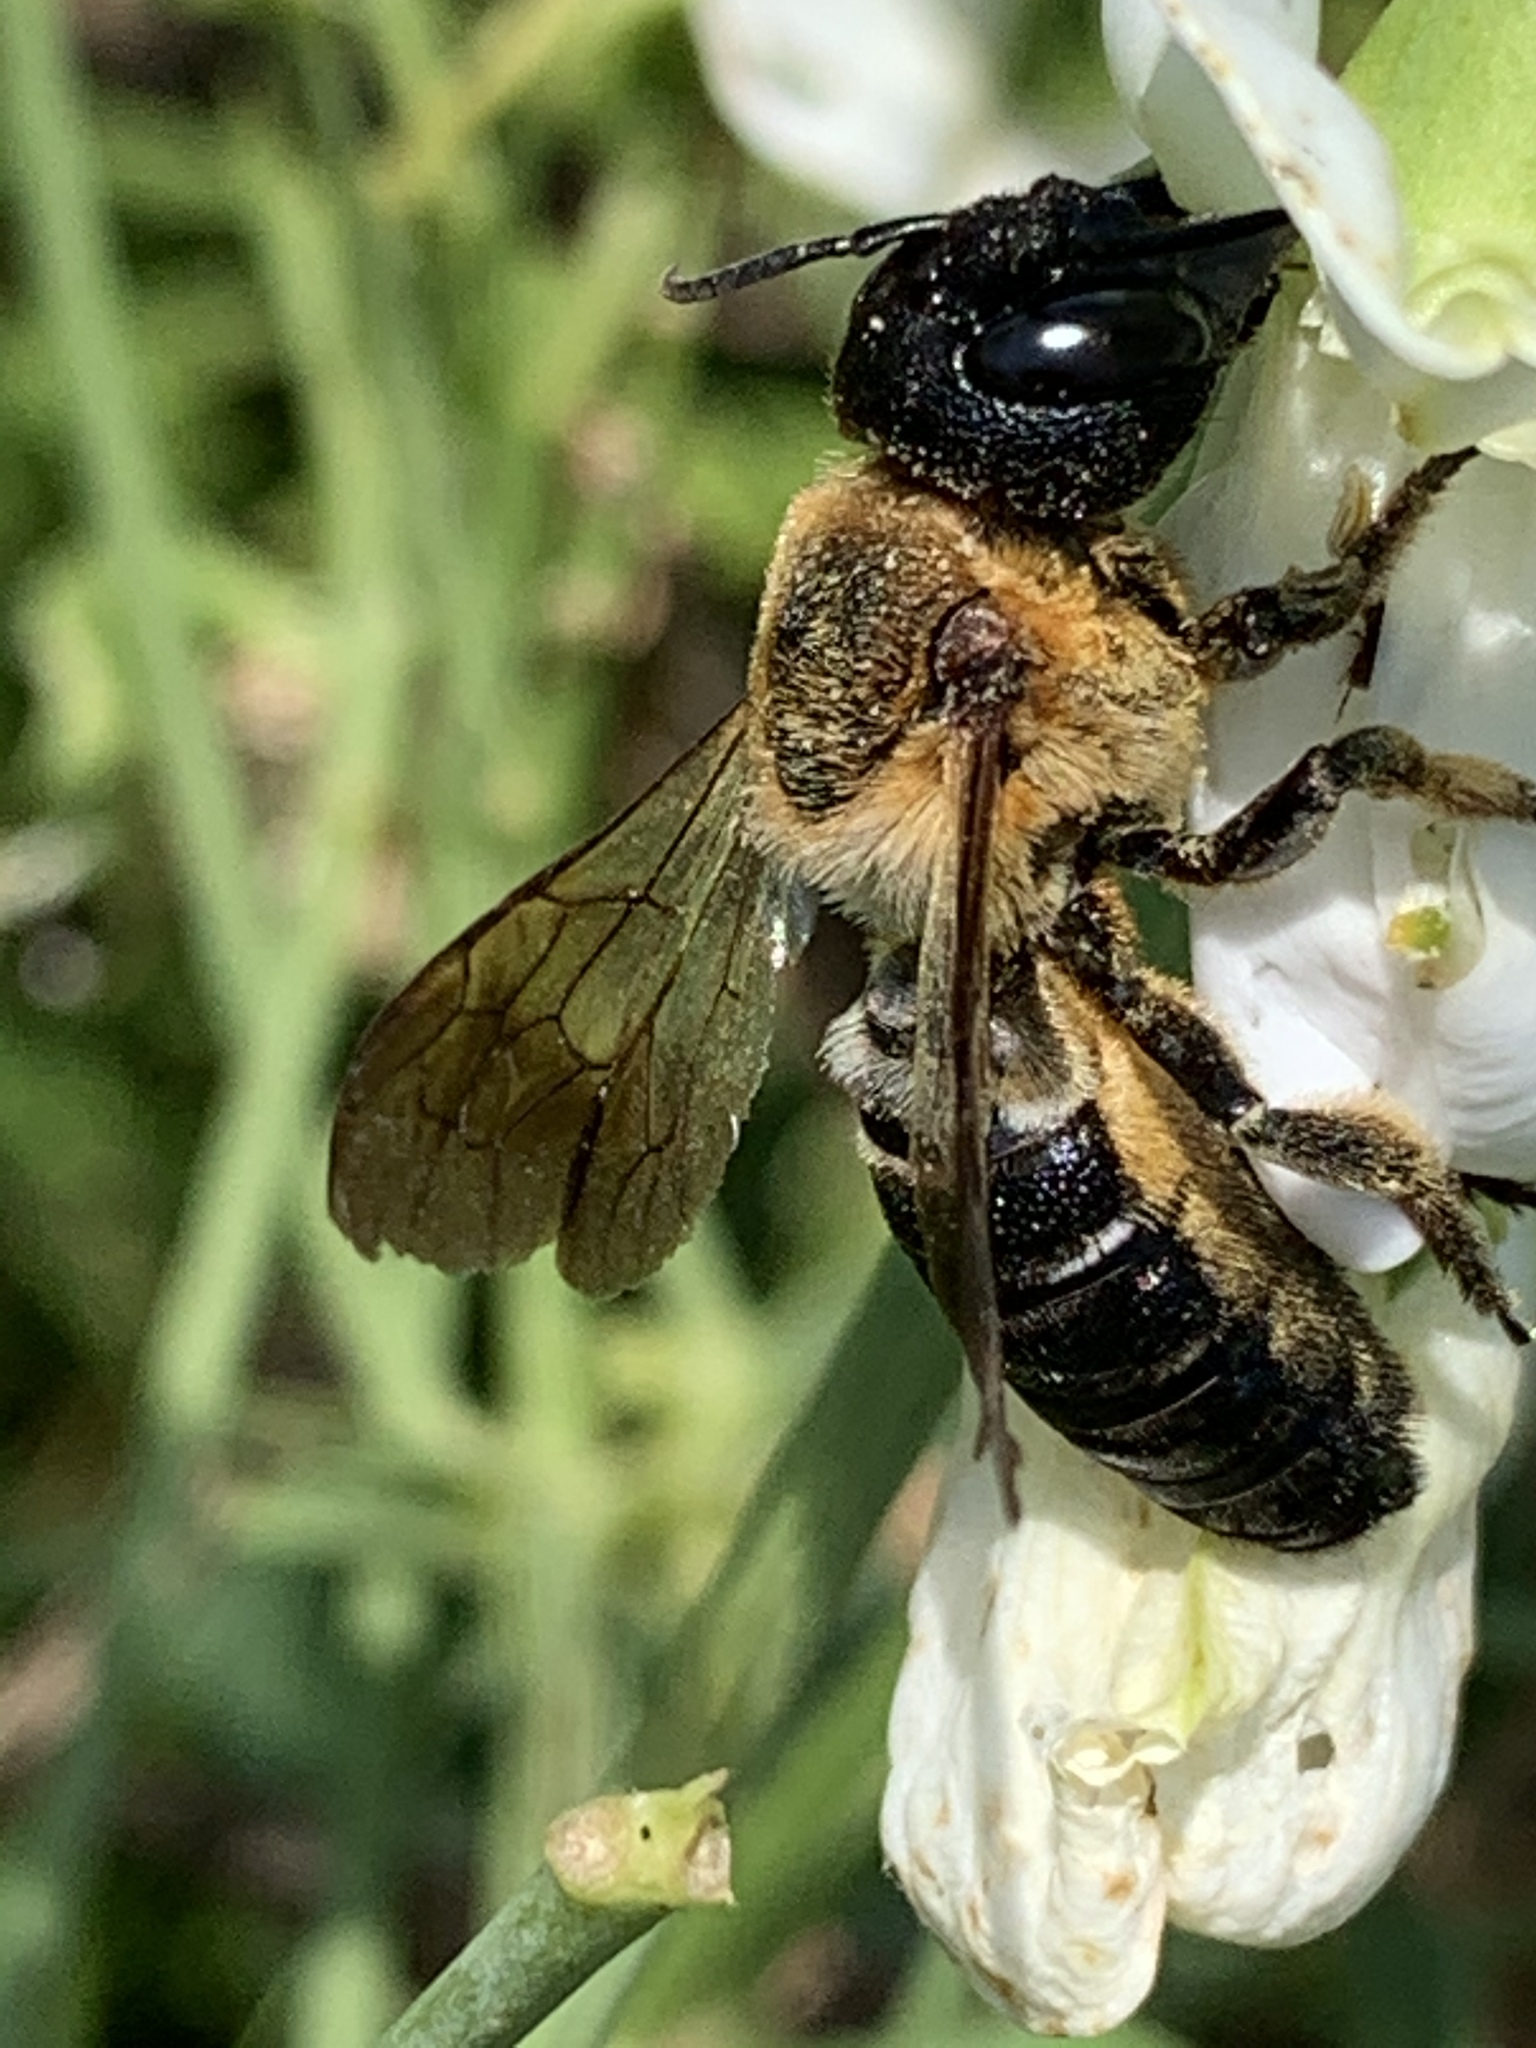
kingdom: Animalia
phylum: Arthropoda
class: Insecta
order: Hymenoptera
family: Megachilidae
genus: Megachile
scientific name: Megachile sculpturalis
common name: Sculptured resin bee
